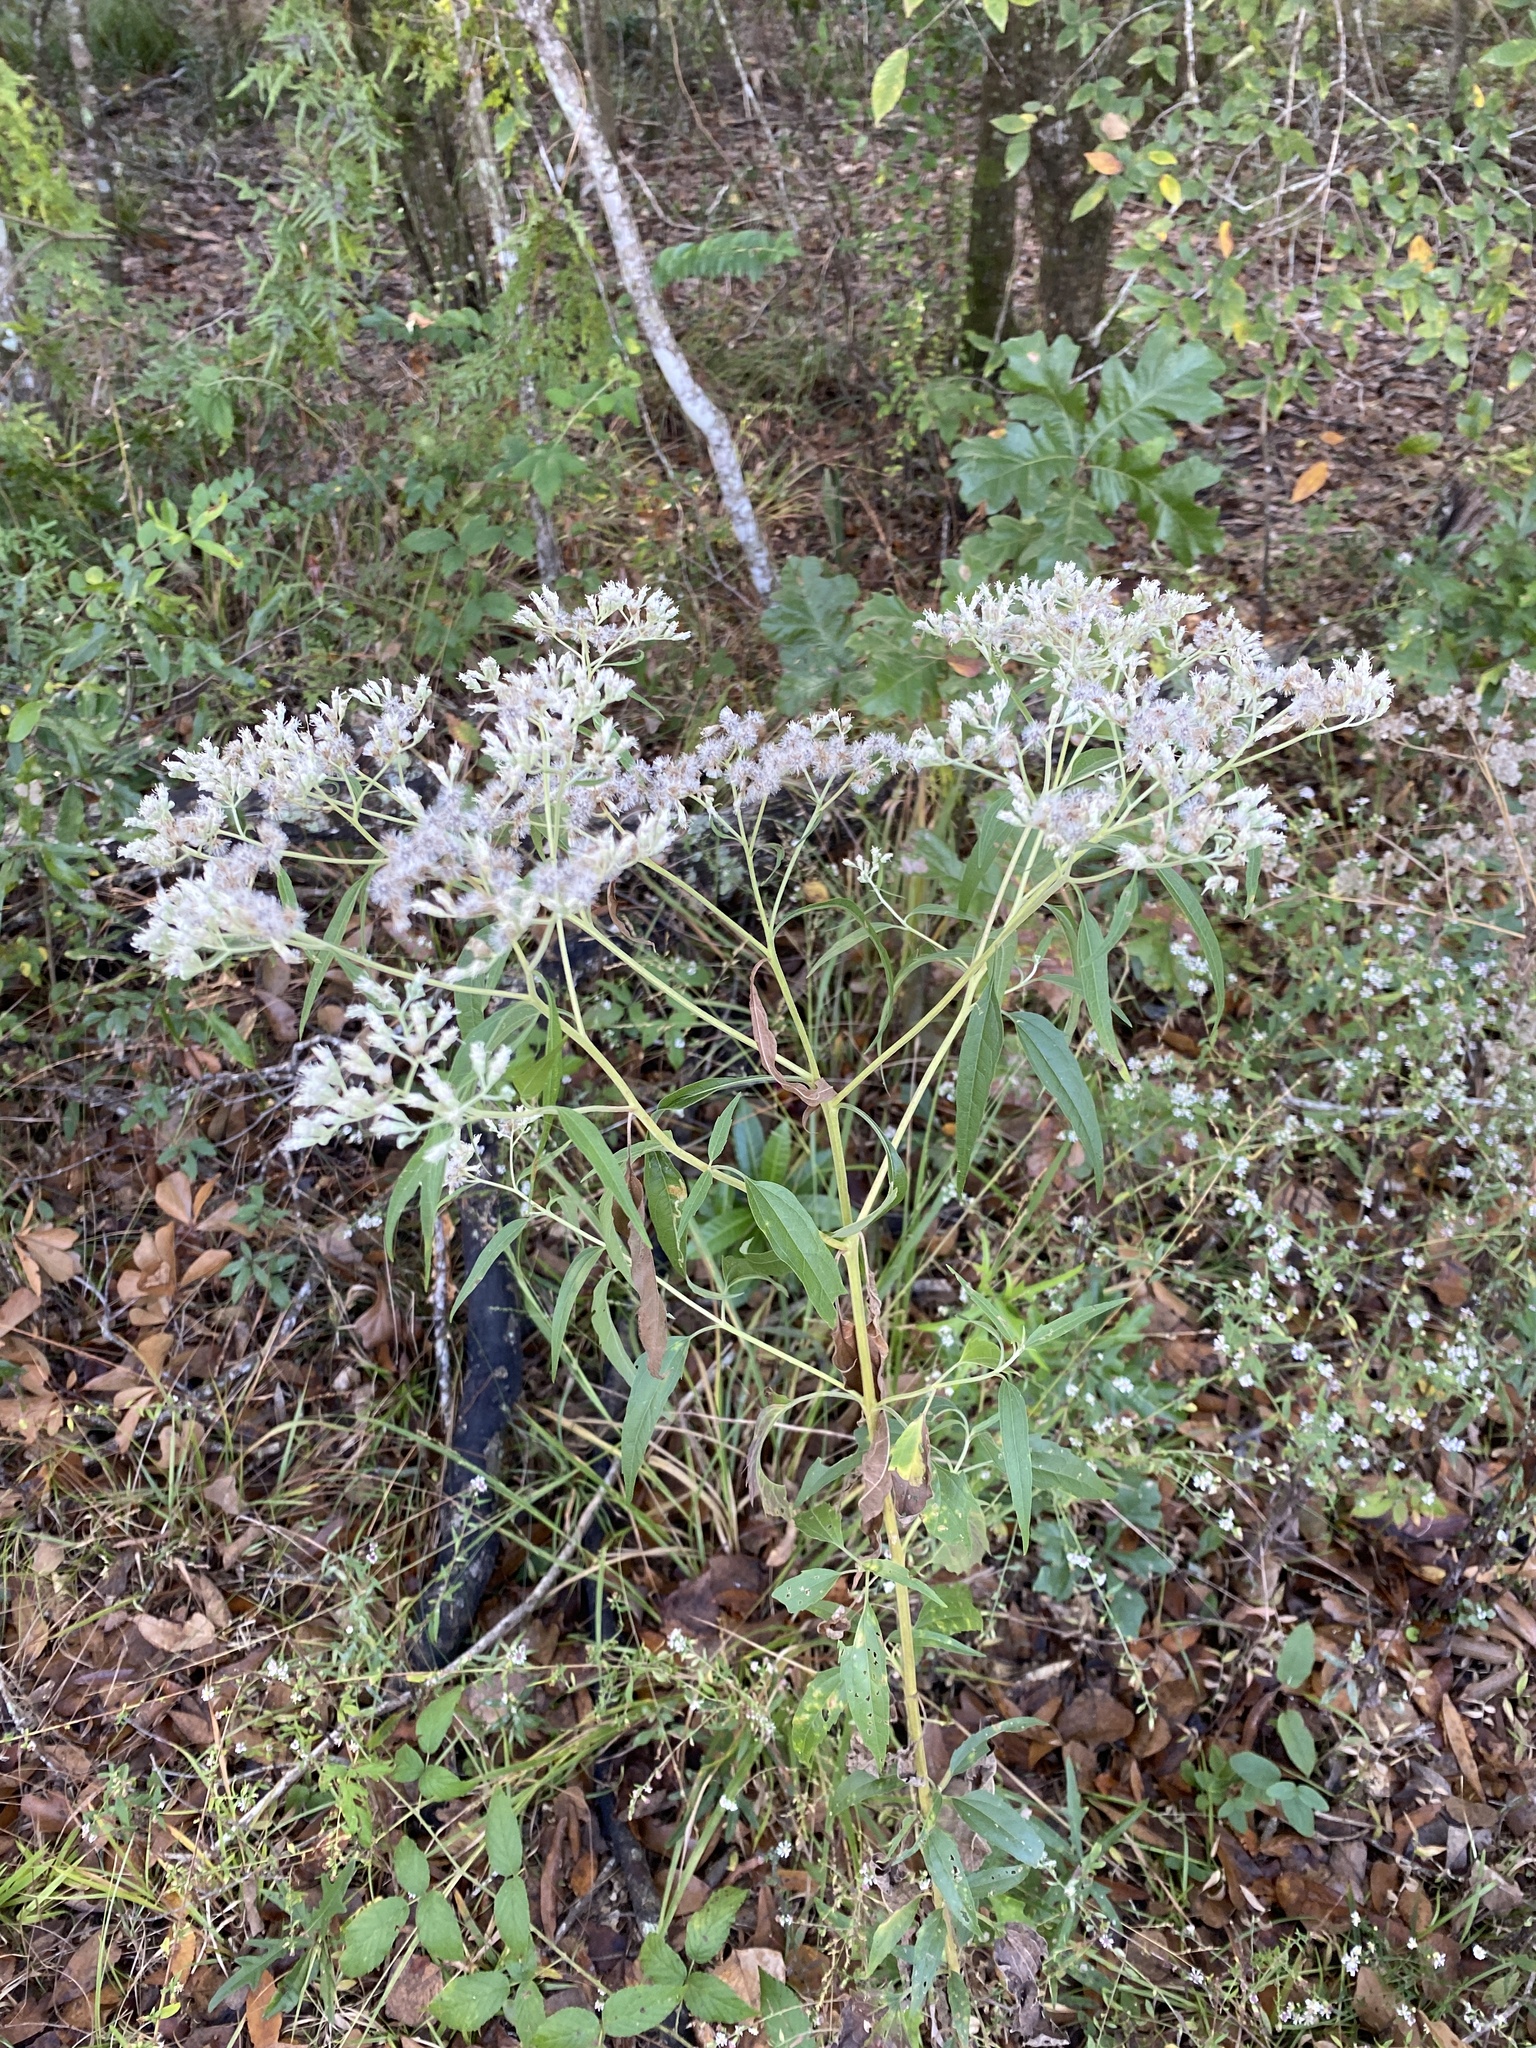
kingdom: Plantae
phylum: Tracheophyta
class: Magnoliopsida
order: Asterales
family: Asteraceae
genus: Eupatorium
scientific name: Eupatorium serotinum
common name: Late boneset
